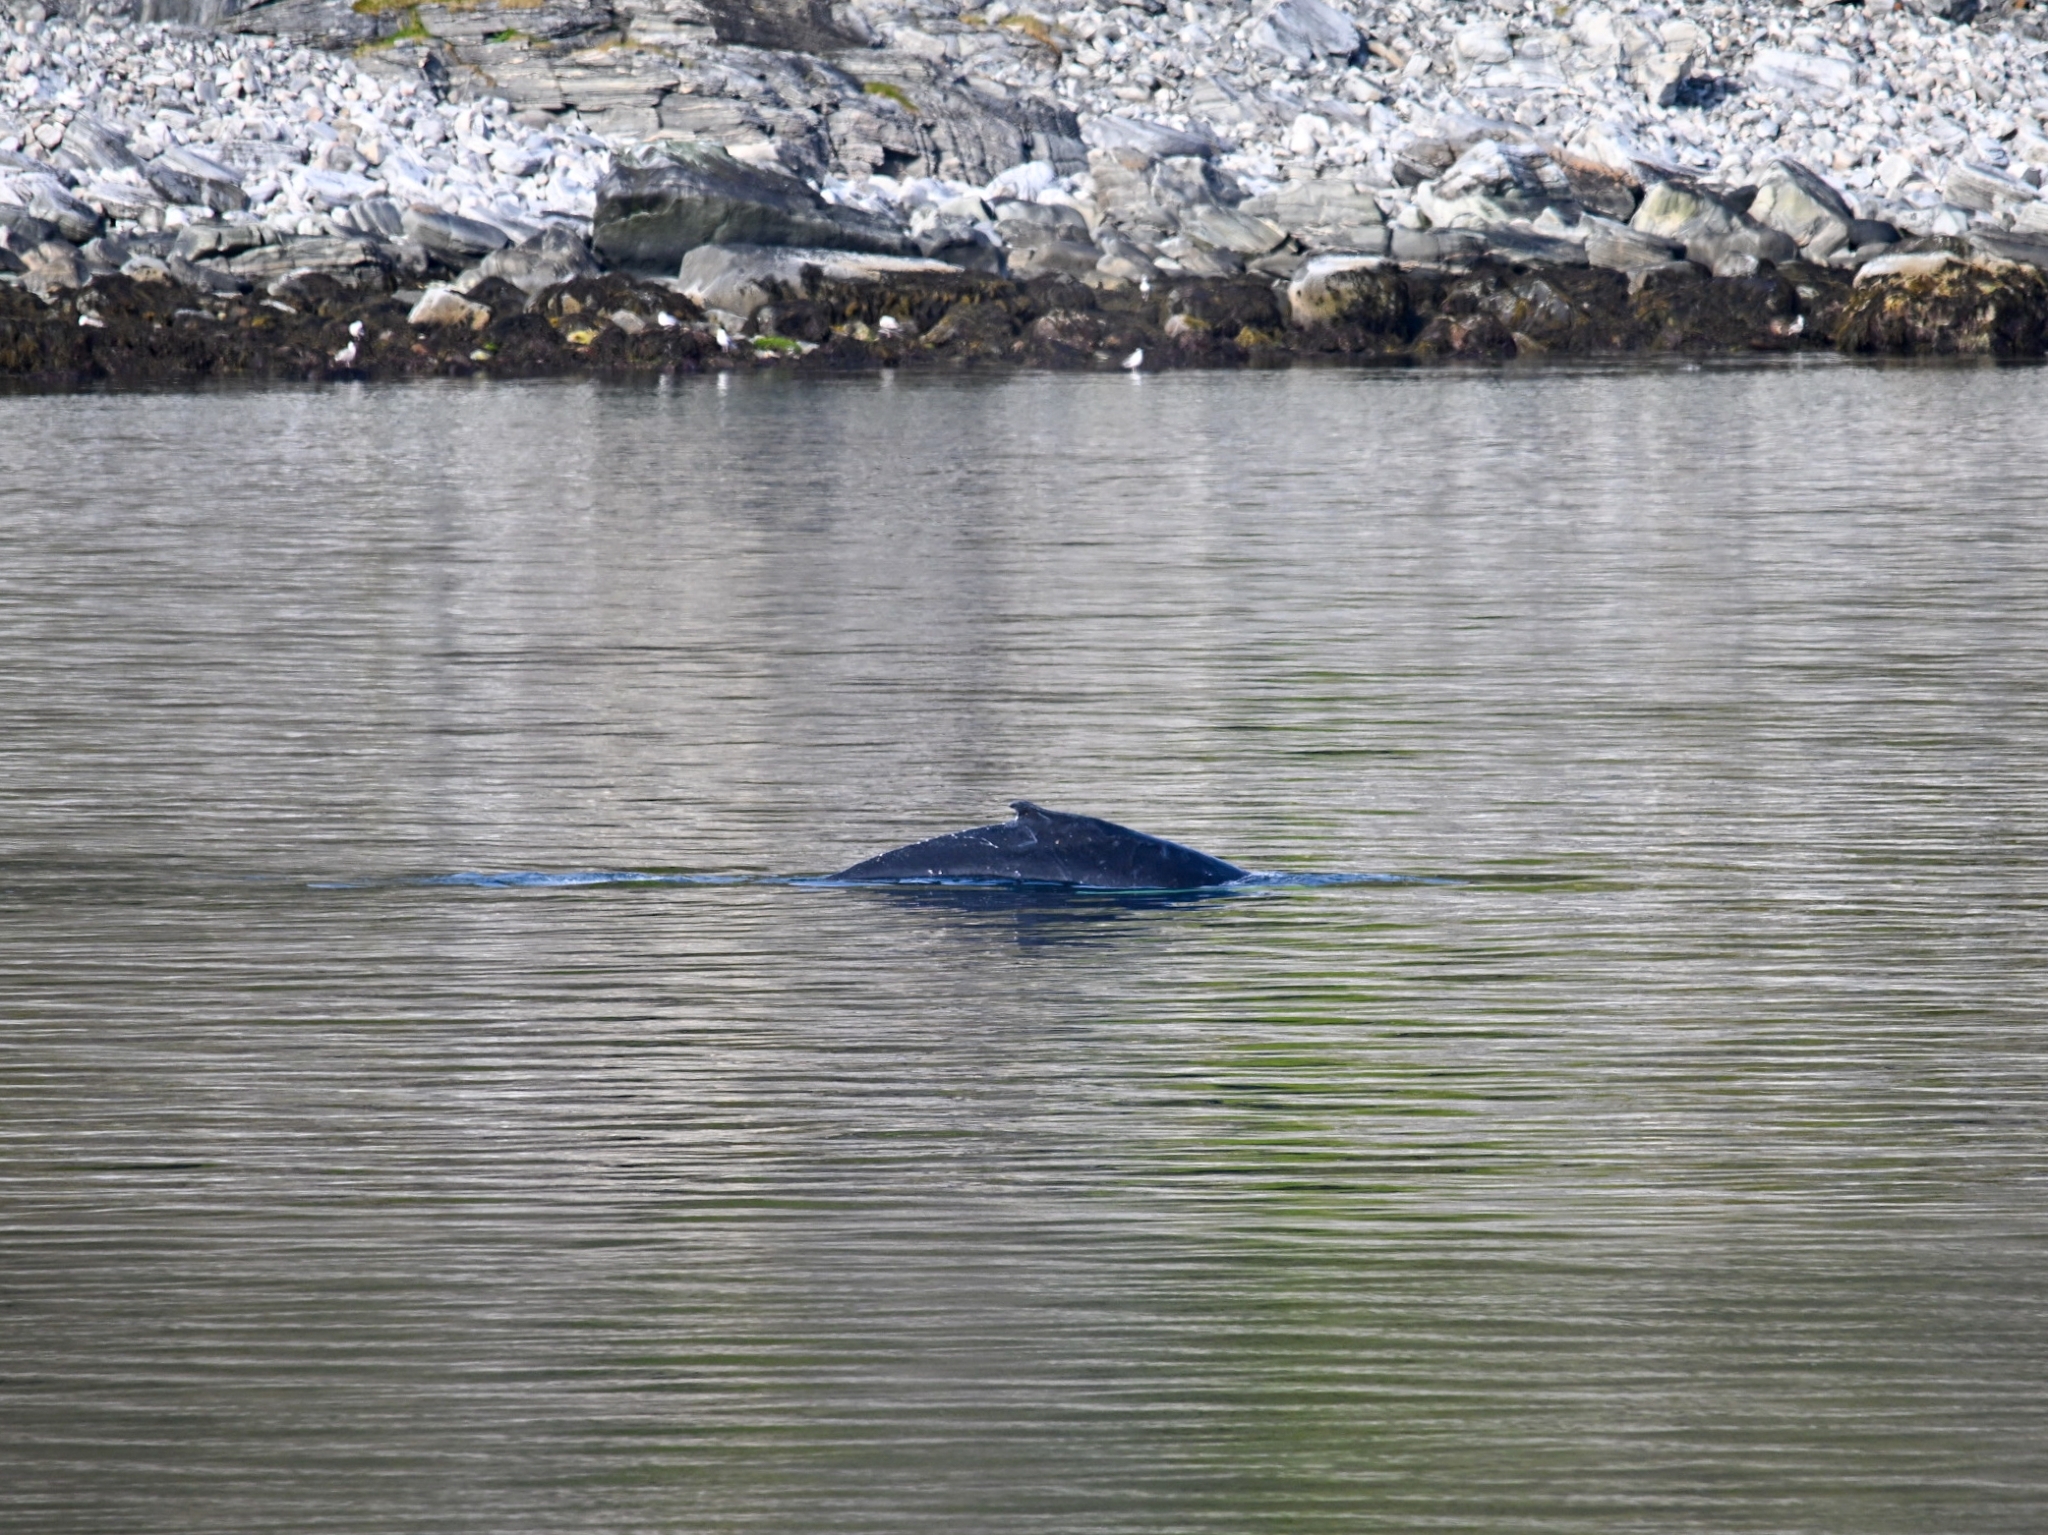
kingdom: Animalia
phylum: Chordata
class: Mammalia
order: Cetacea
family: Balaenopteridae
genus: Megaptera
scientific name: Megaptera novaeangliae
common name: Humpback whale
